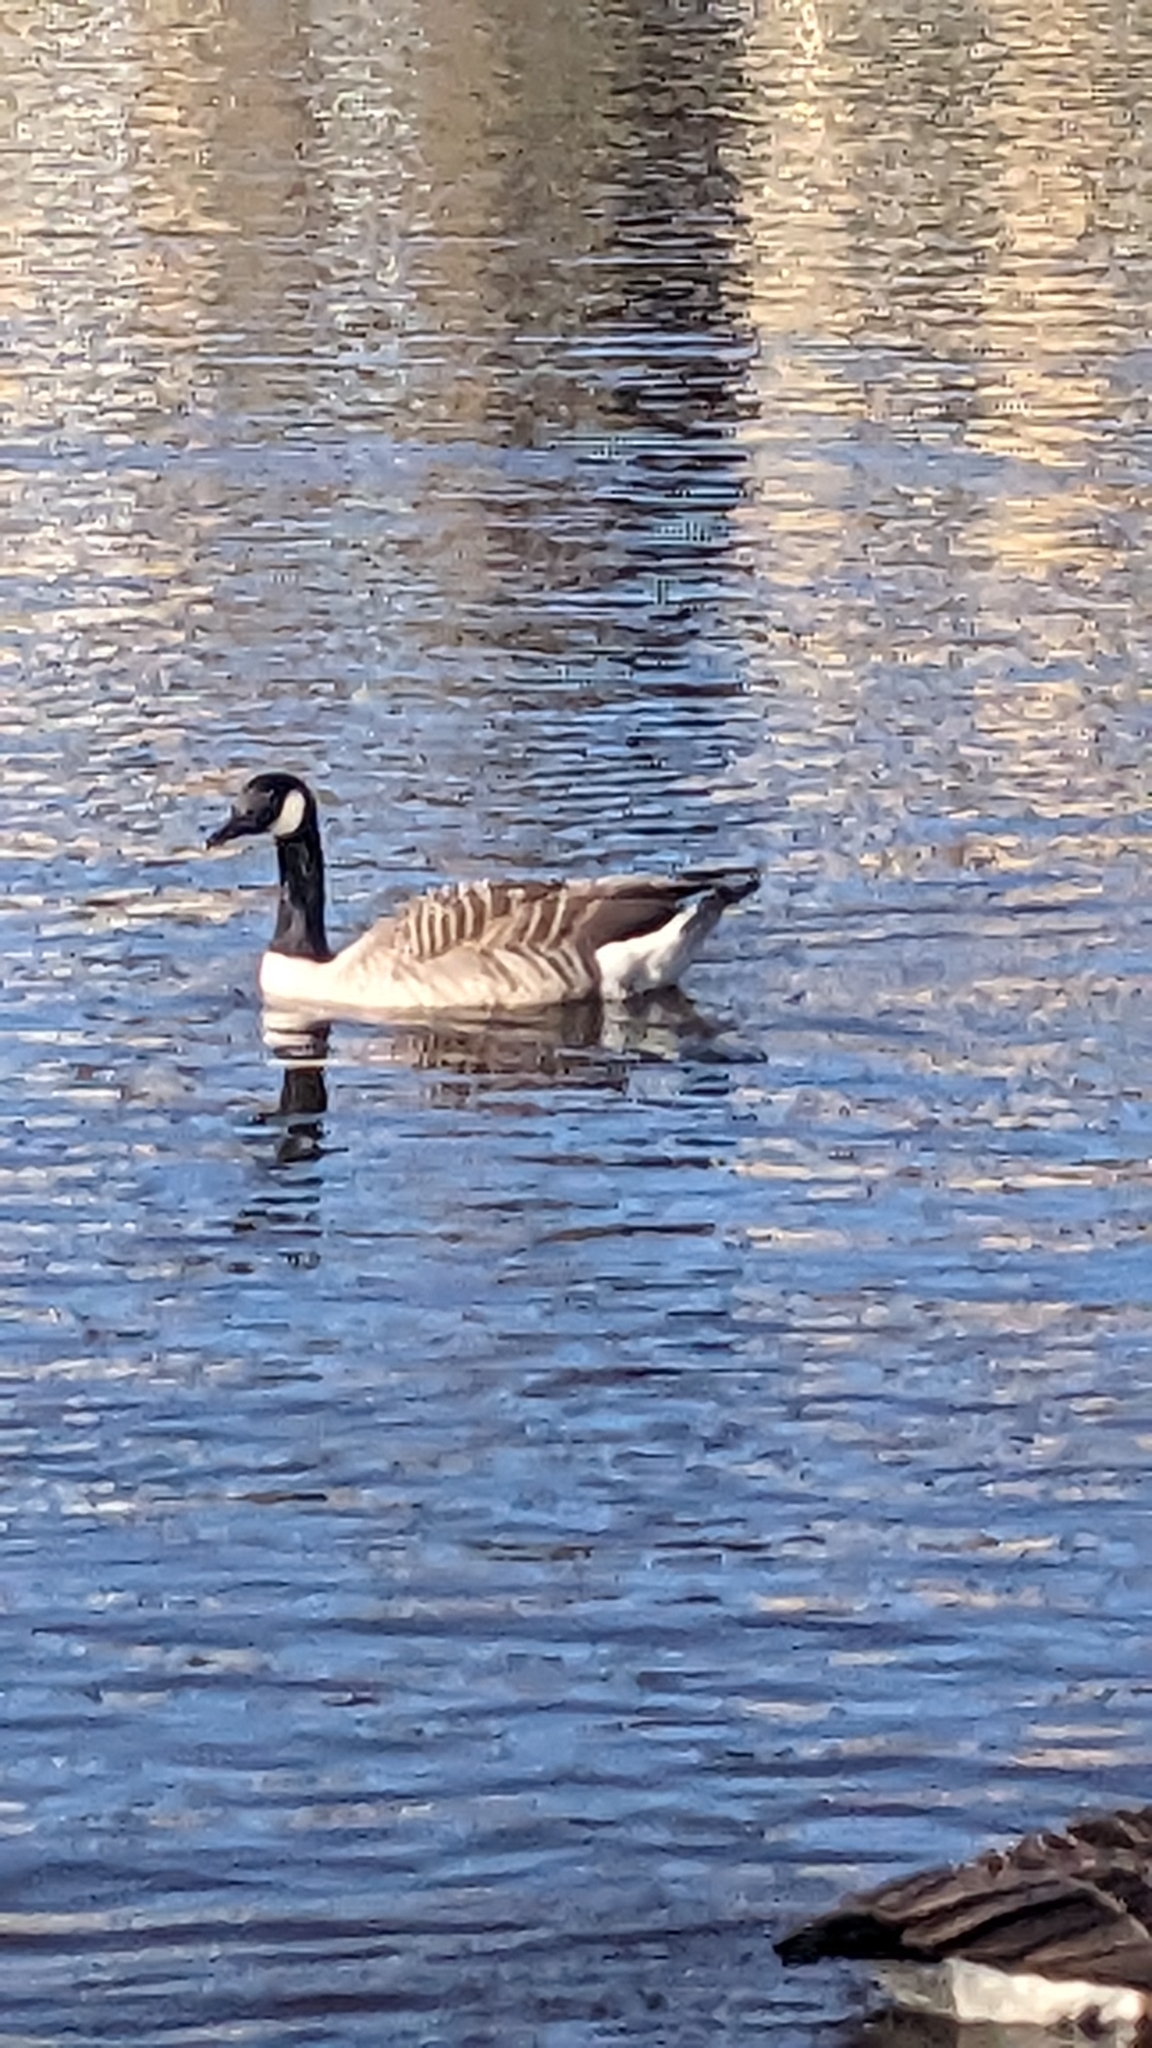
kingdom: Animalia
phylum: Chordata
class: Aves
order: Anseriformes
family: Anatidae
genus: Branta
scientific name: Branta canadensis
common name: Canada goose
